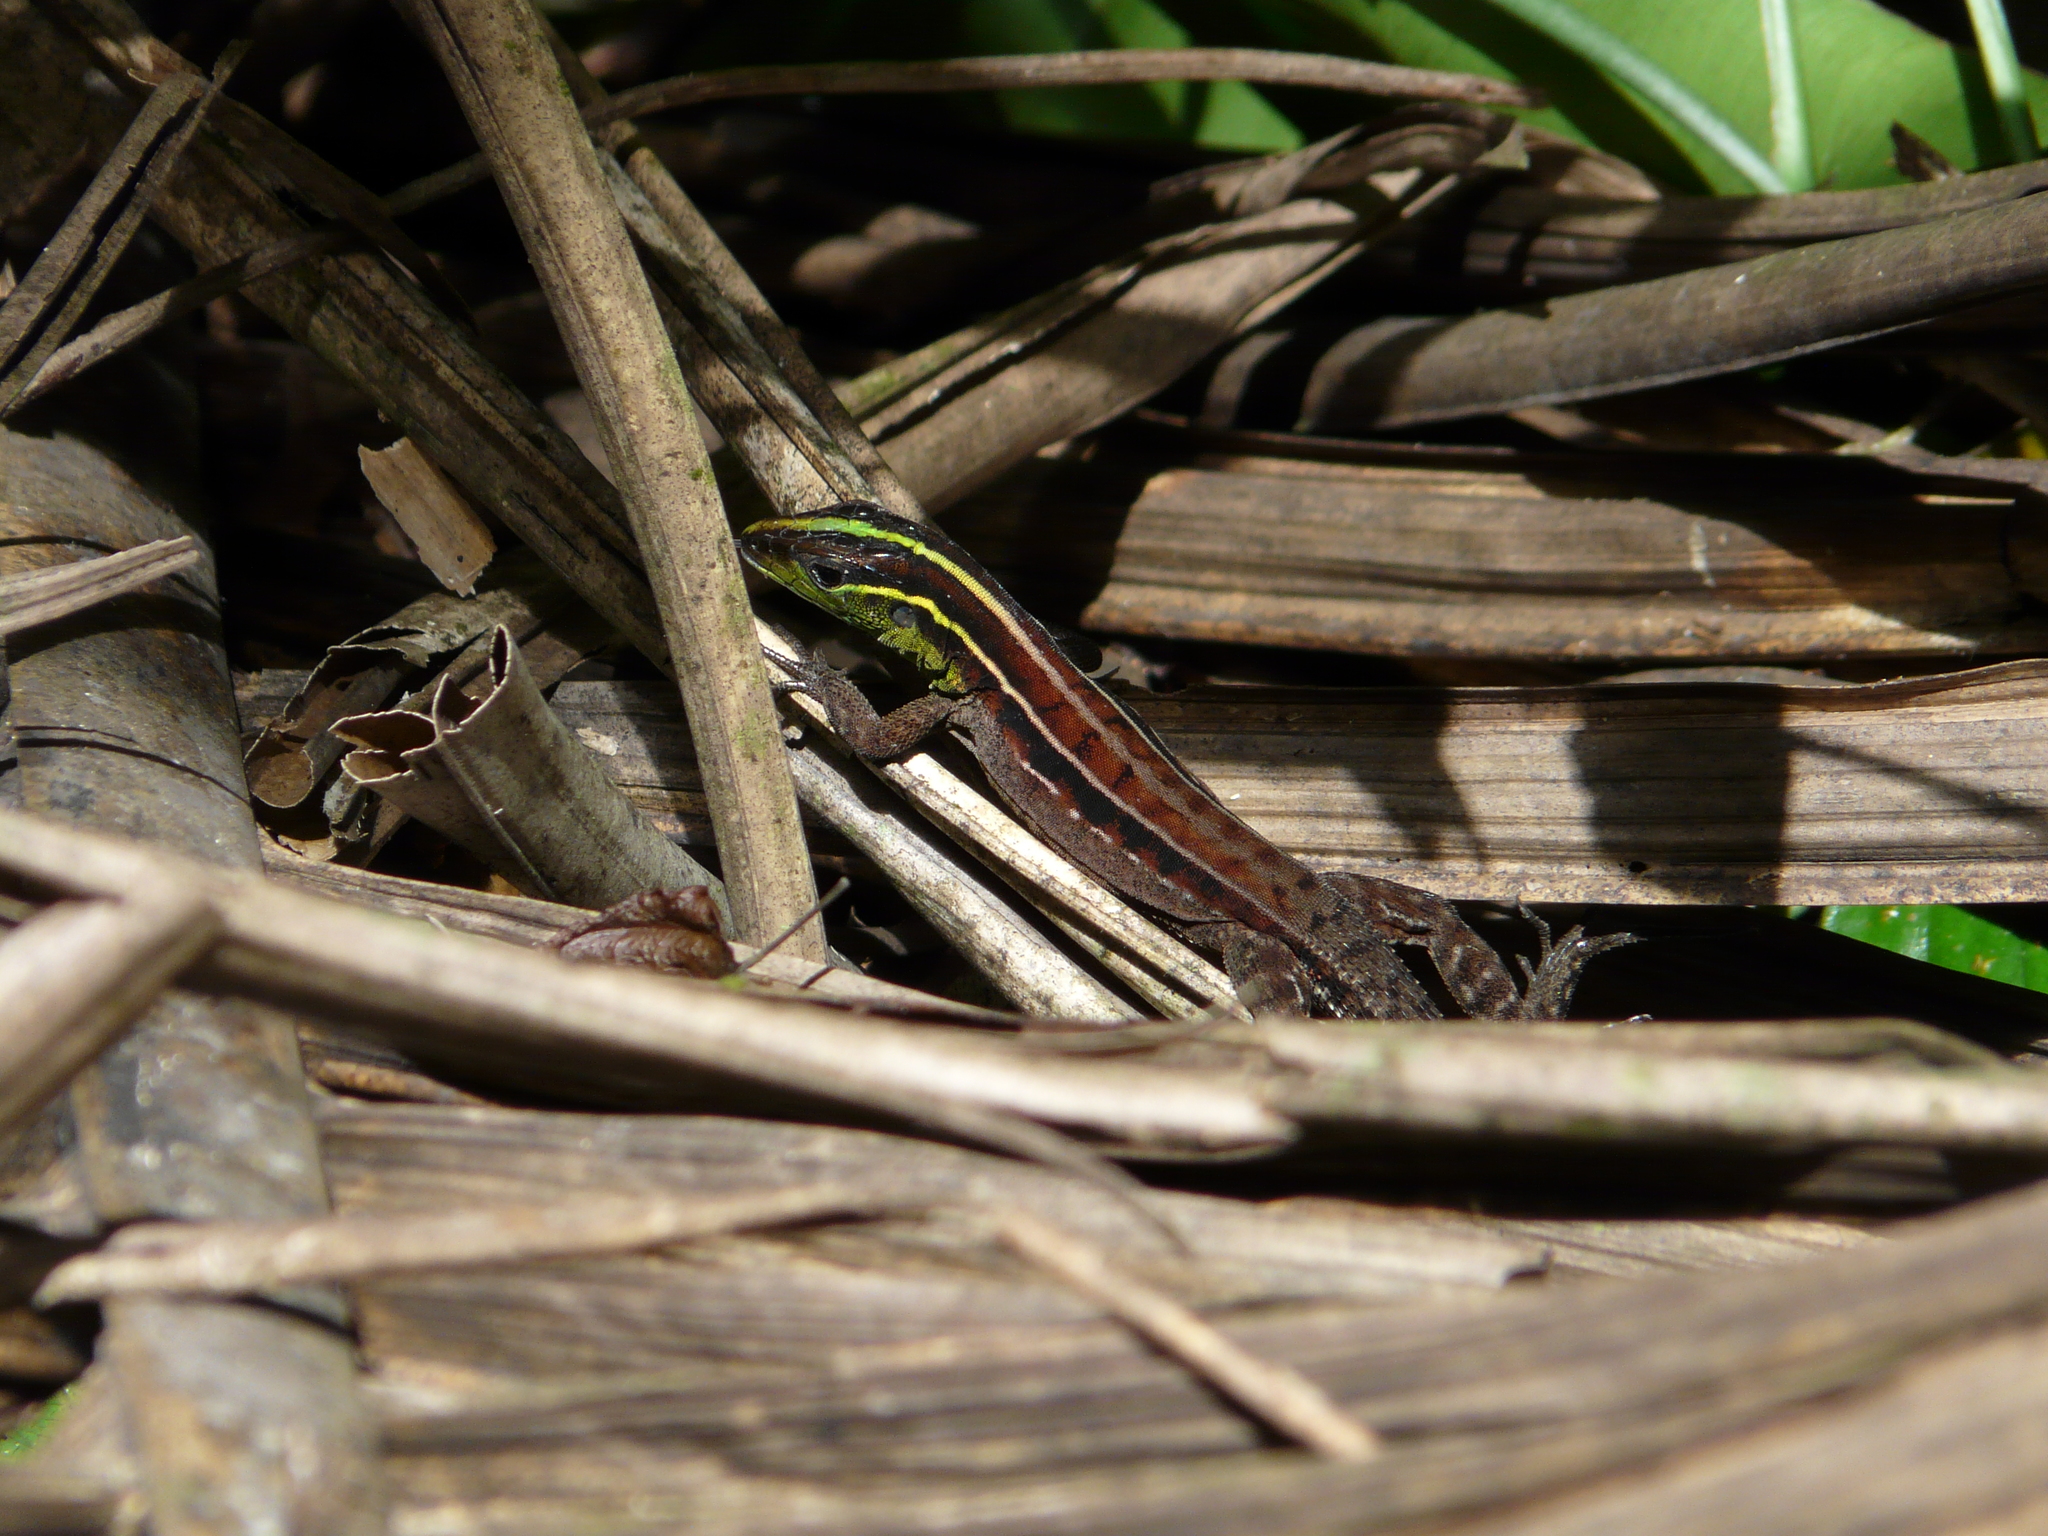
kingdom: Animalia
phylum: Chordata
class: Squamata
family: Teiidae
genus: Kentropyx
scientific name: Kentropyx calcarata
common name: Striped forest whiptail
